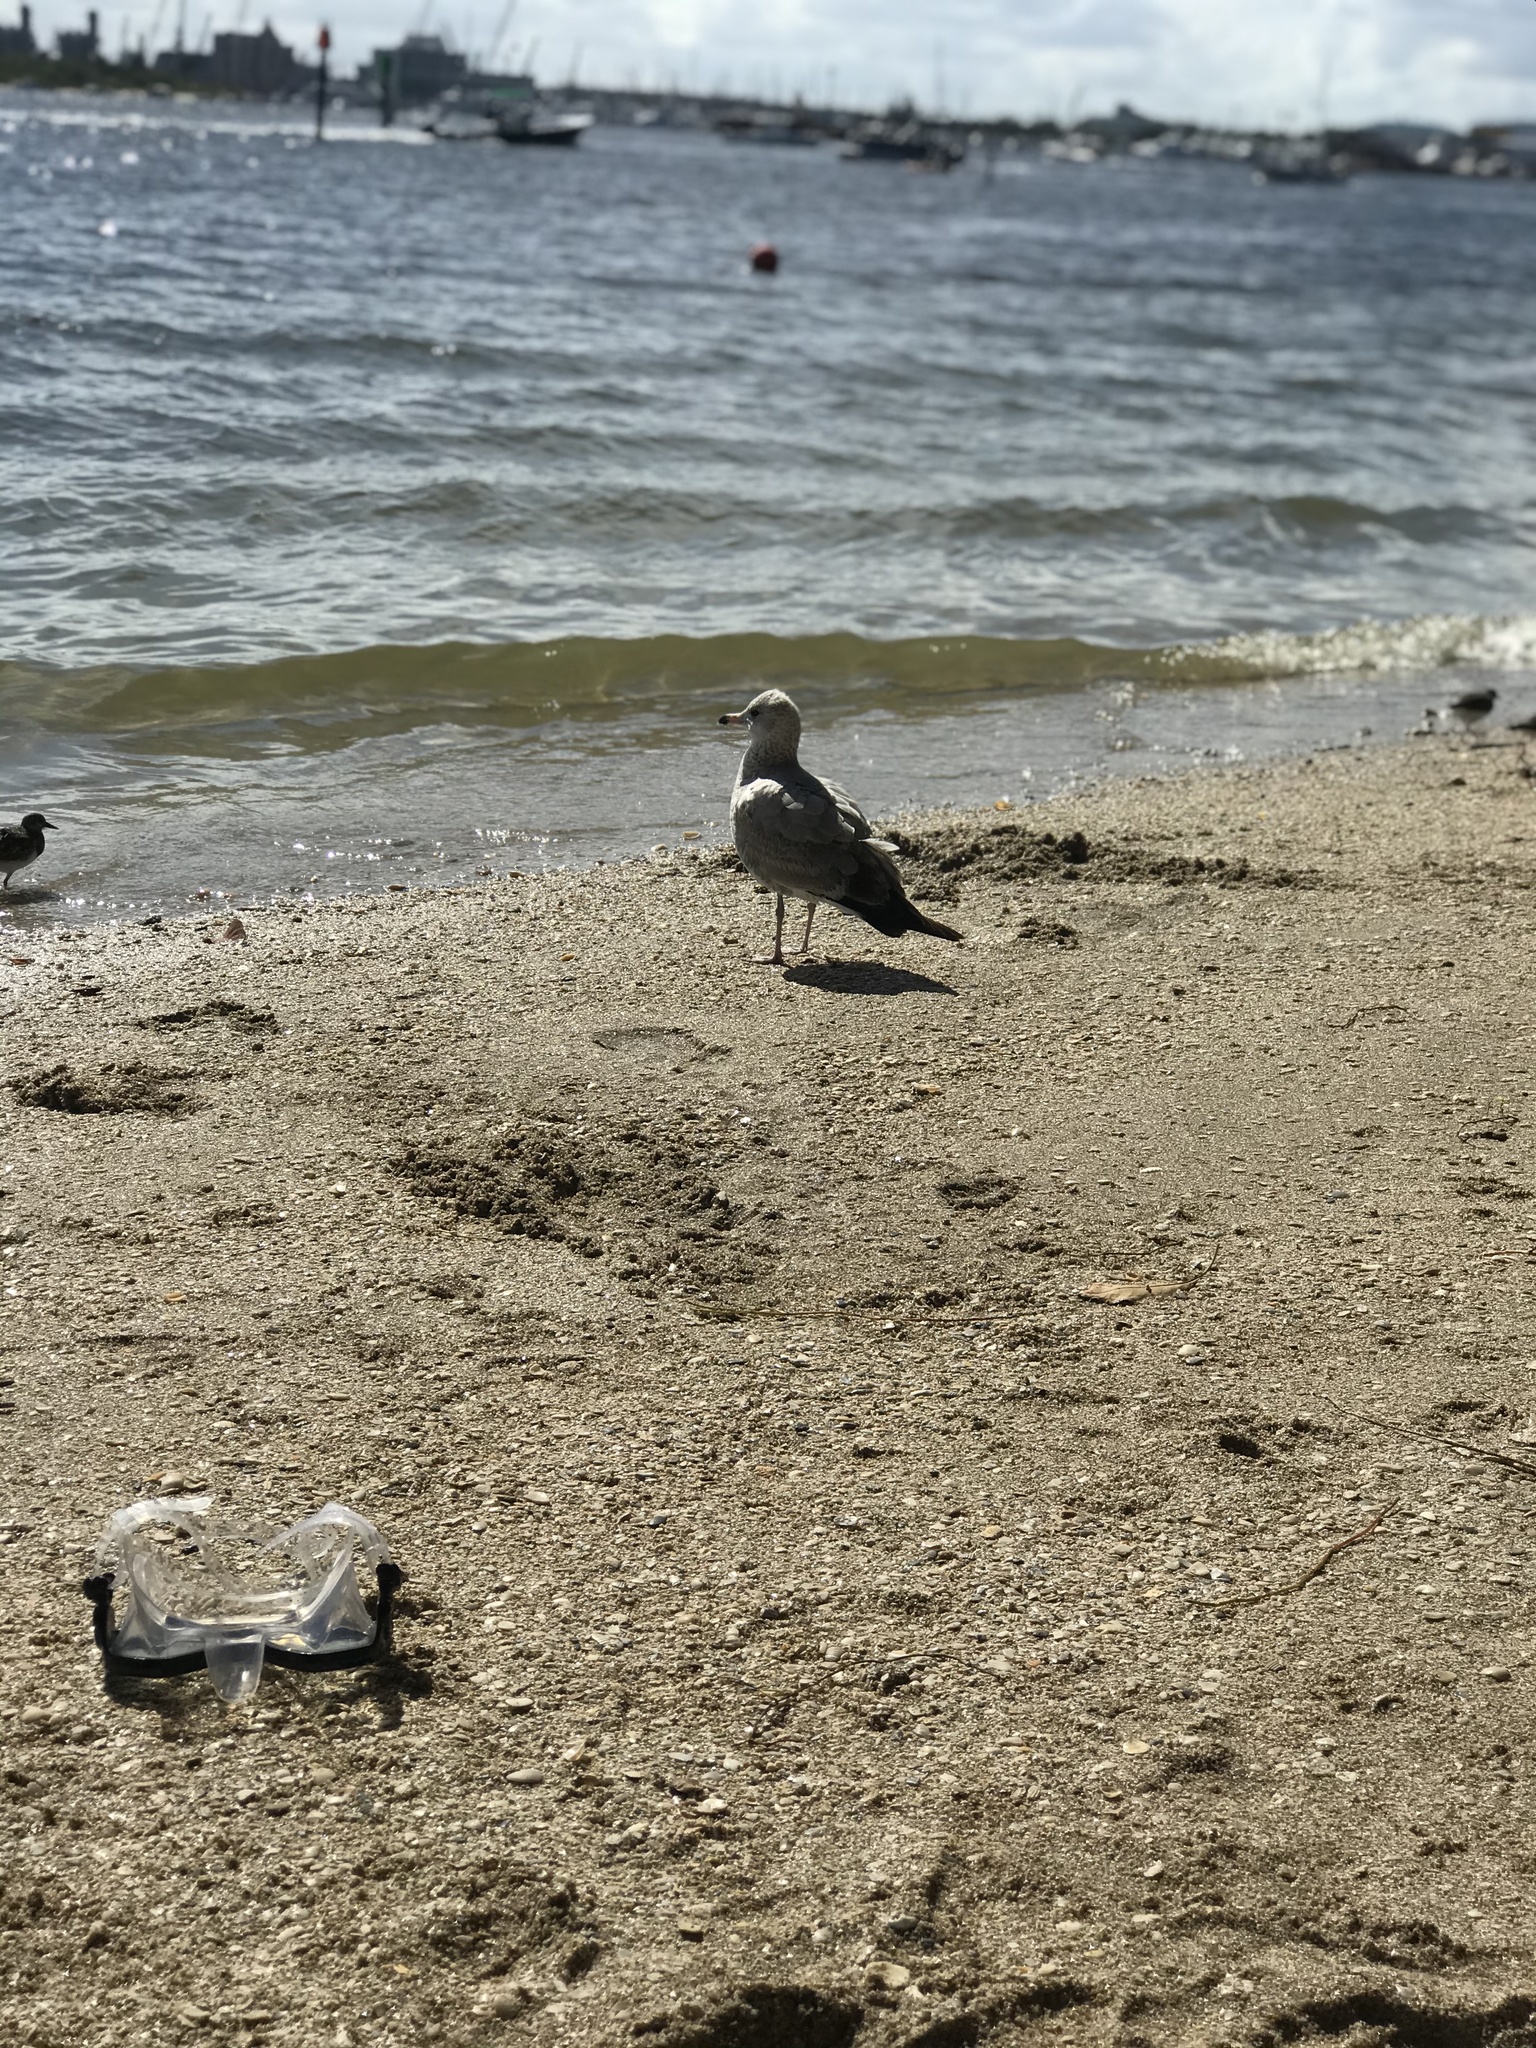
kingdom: Animalia
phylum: Chordata
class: Aves
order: Charadriiformes
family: Laridae
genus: Larus
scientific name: Larus delawarensis
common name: Ring-billed gull
